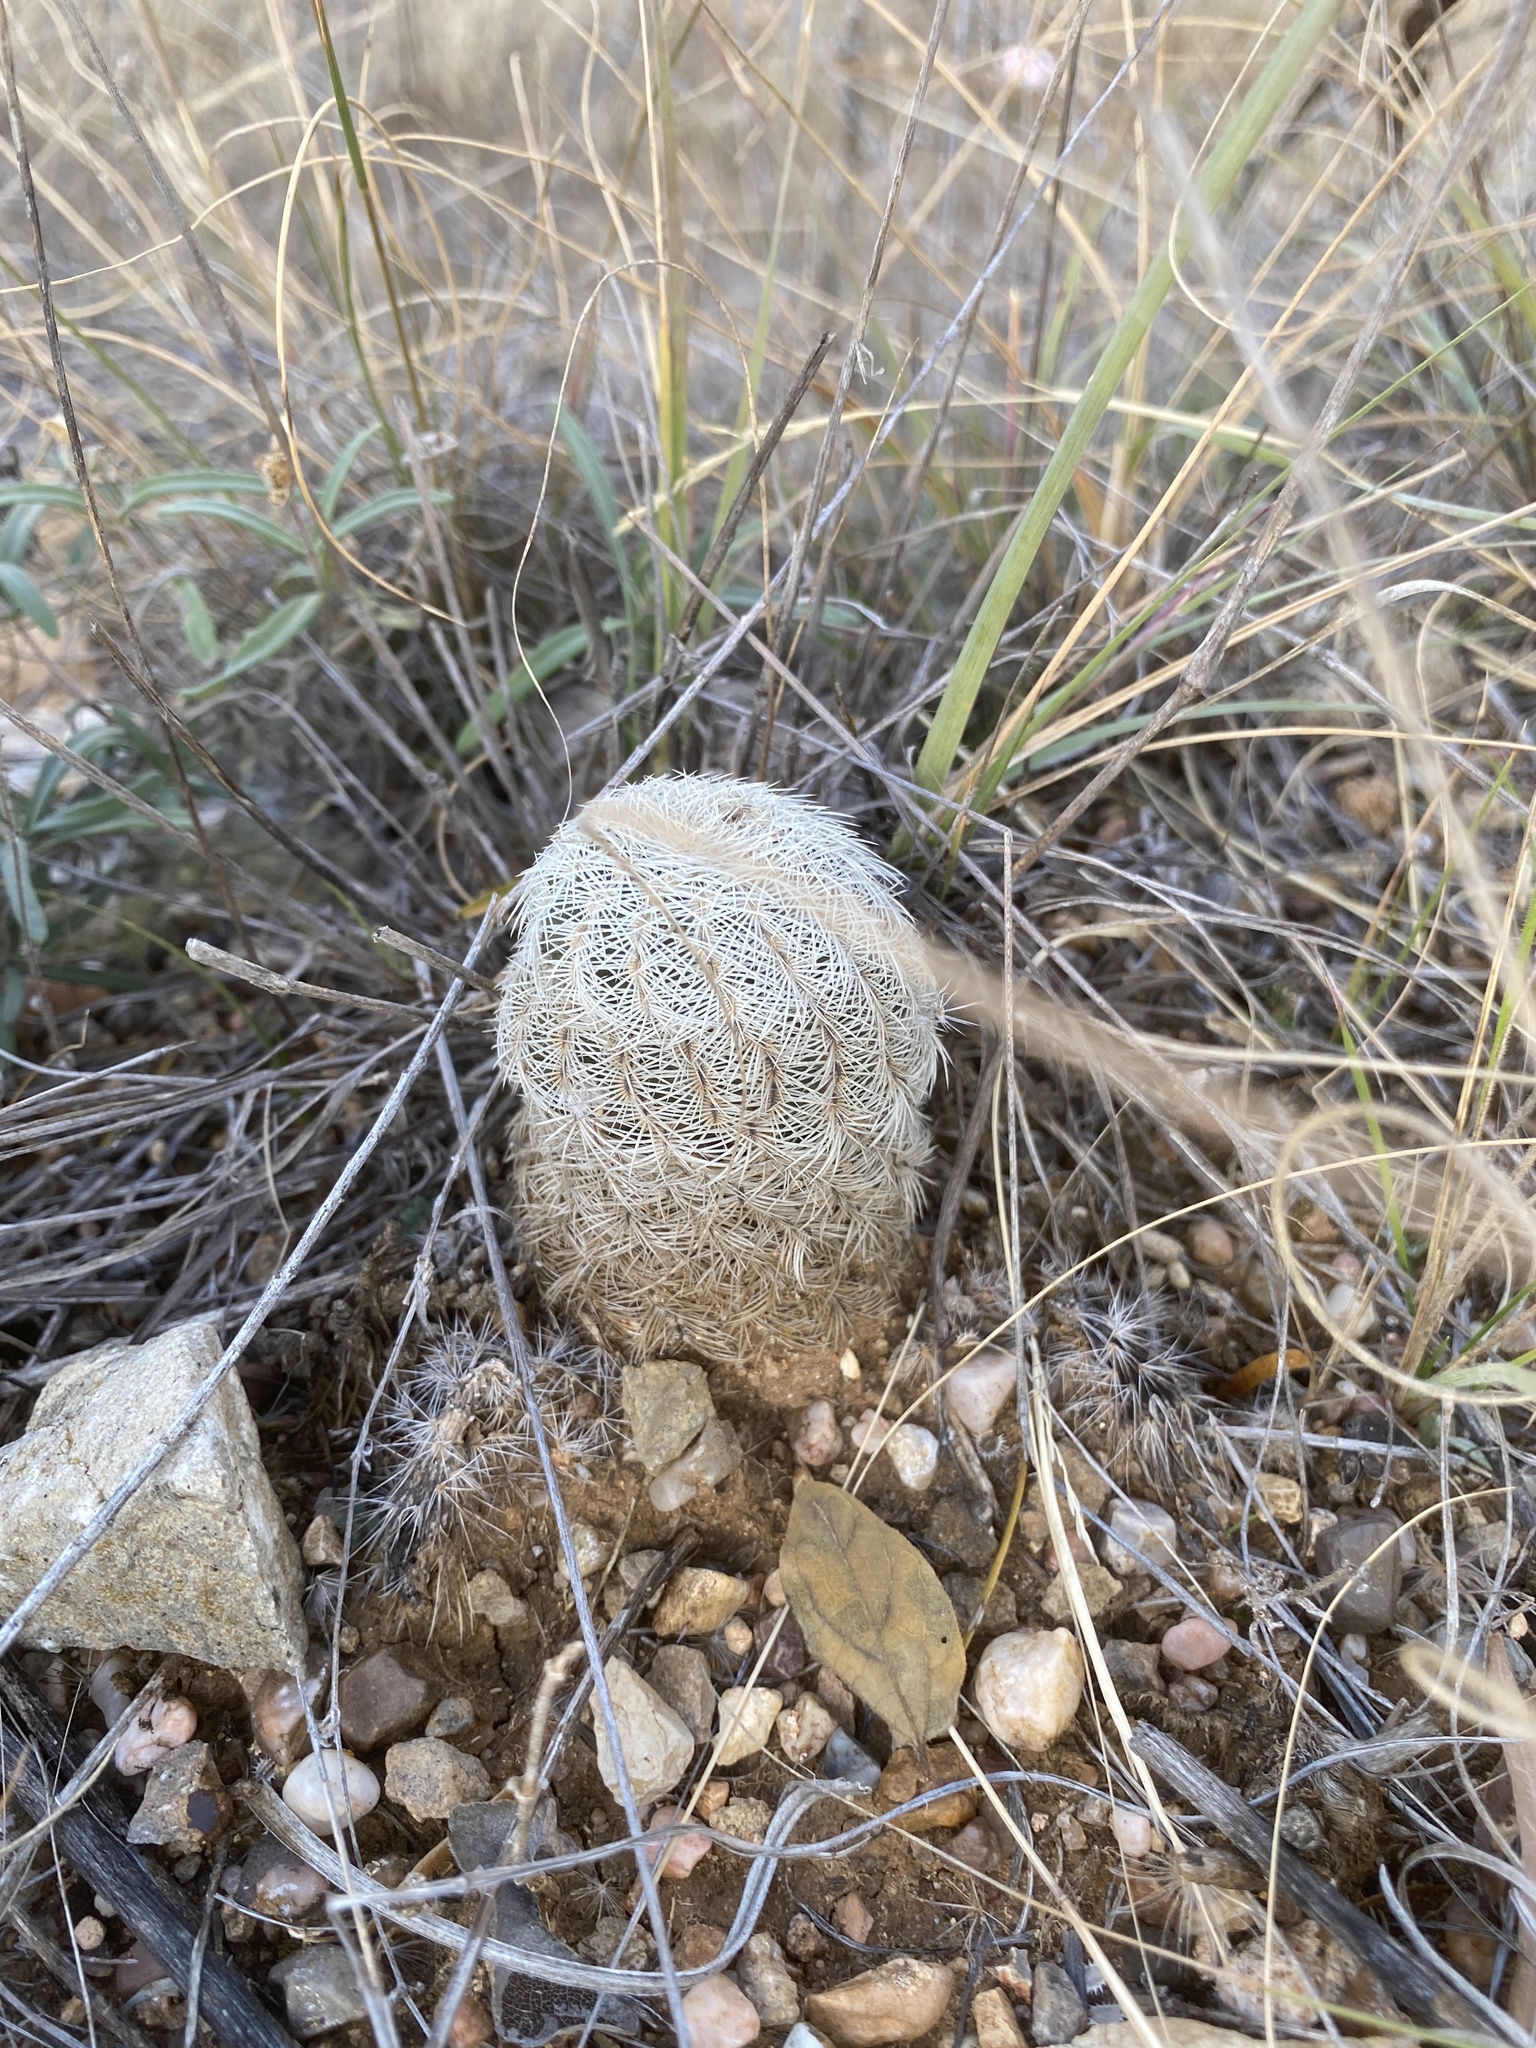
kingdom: Plantae
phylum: Tracheophyta
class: Magnoliopsida
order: Caryophyllales
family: Cactaceae
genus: Echinocereus
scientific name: Echinocereus reichenbachii
